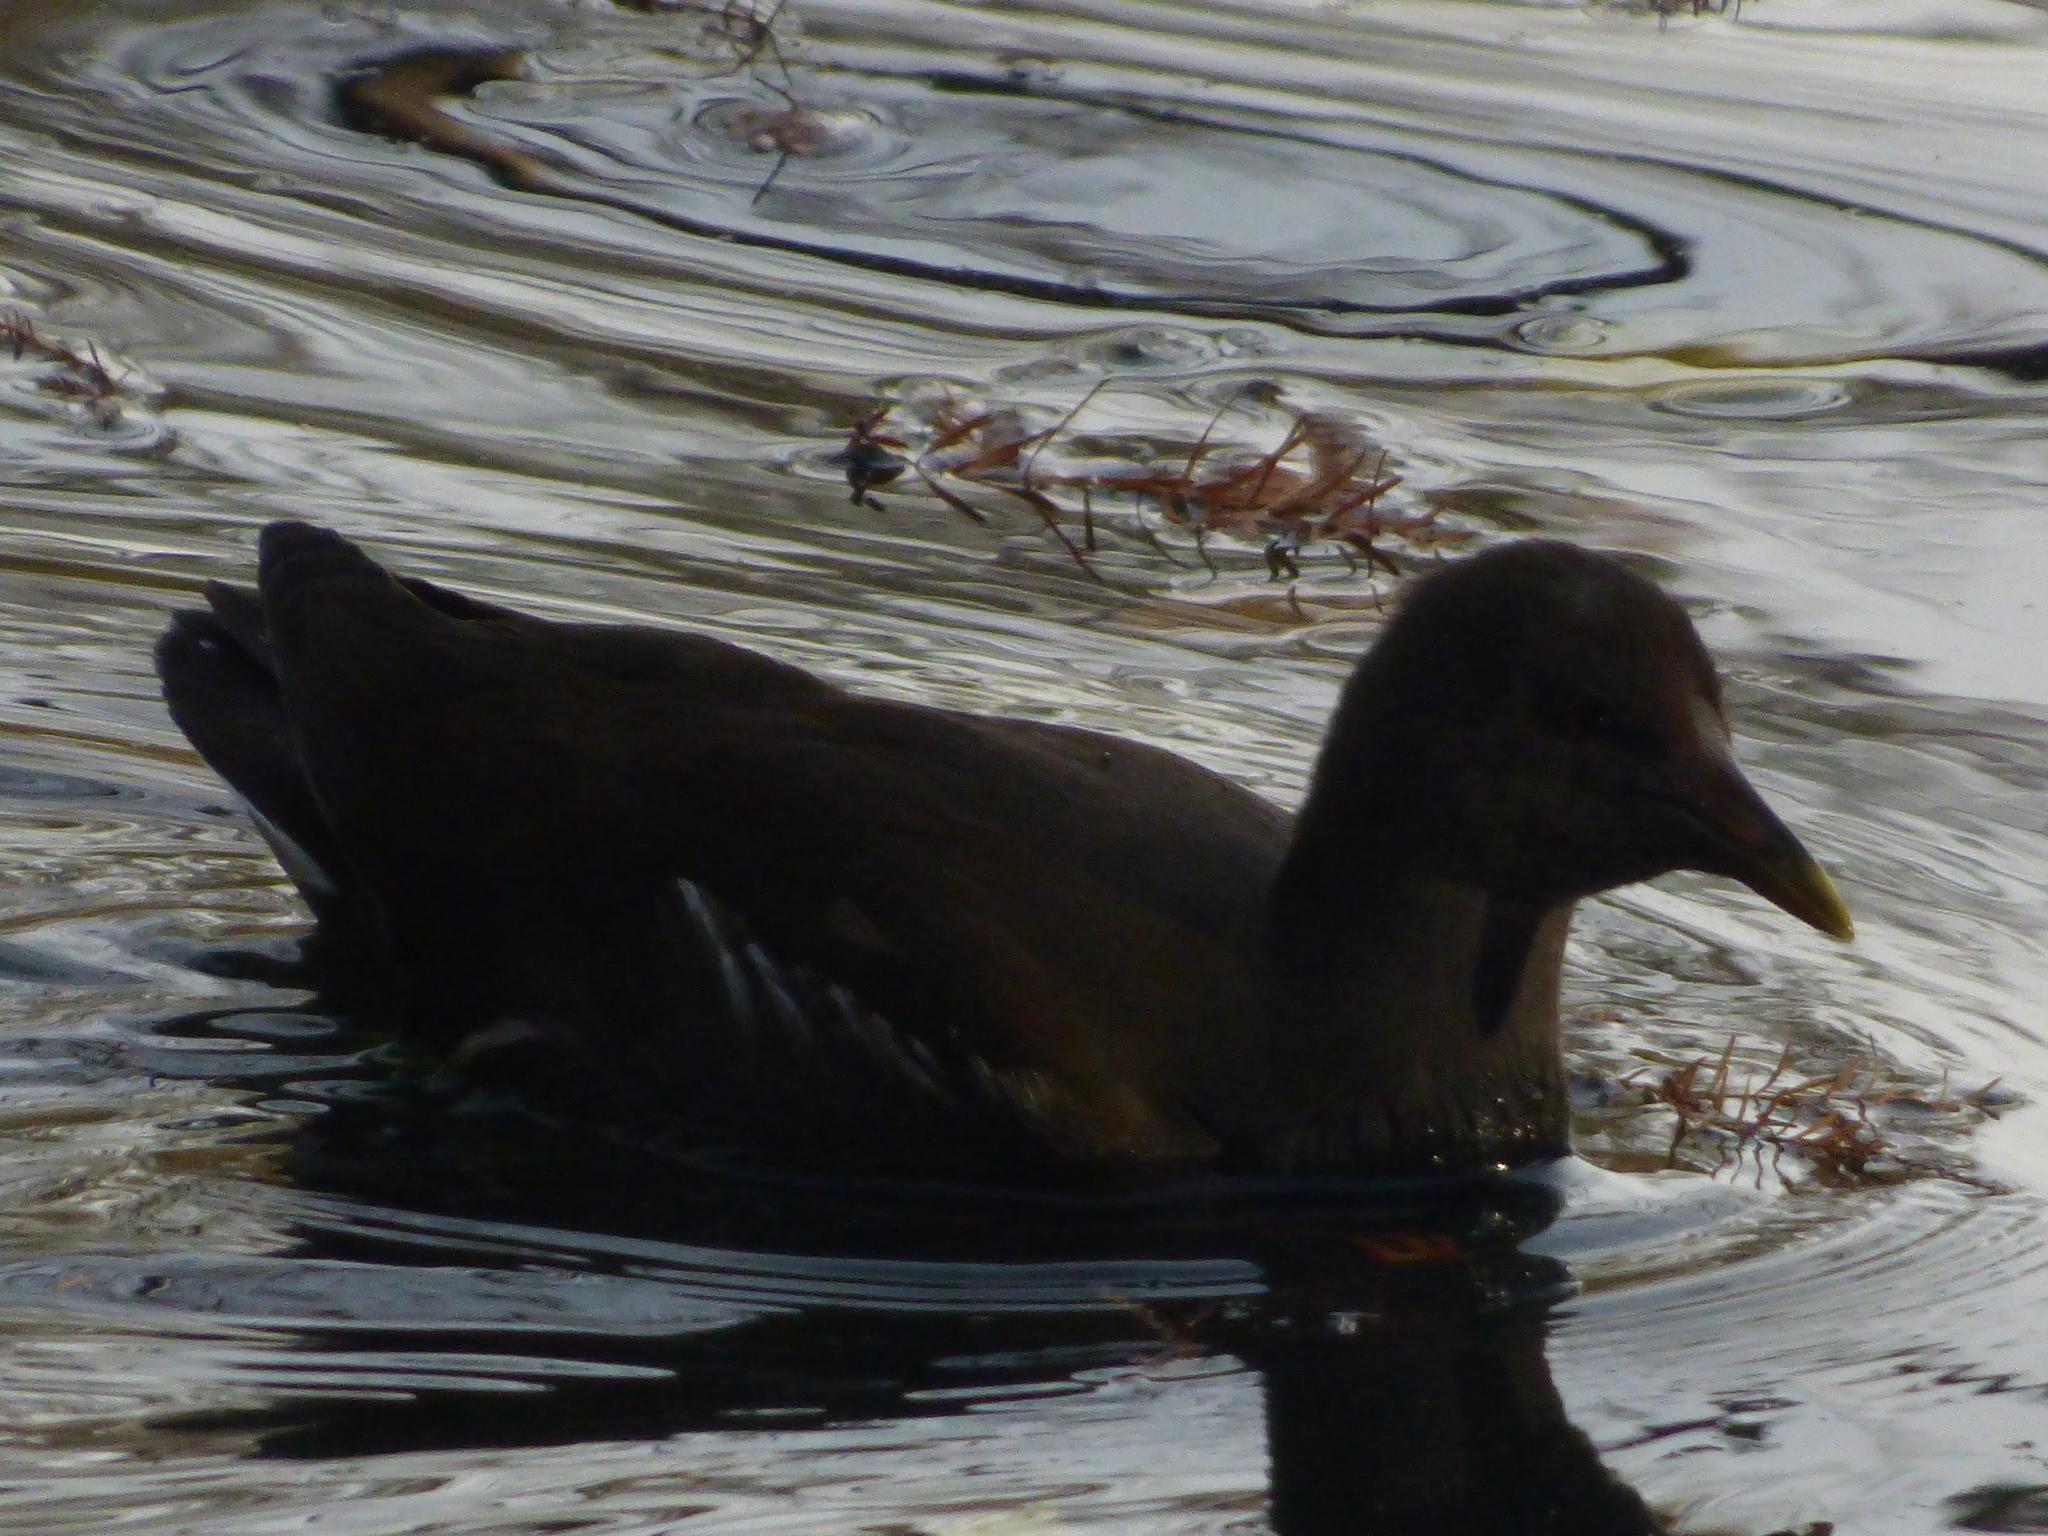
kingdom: Animalia
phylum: Chordata
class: Aves
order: Gruiformes
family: Rallidae
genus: Gallinula
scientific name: Gallinula chloropus
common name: Common moorhen
